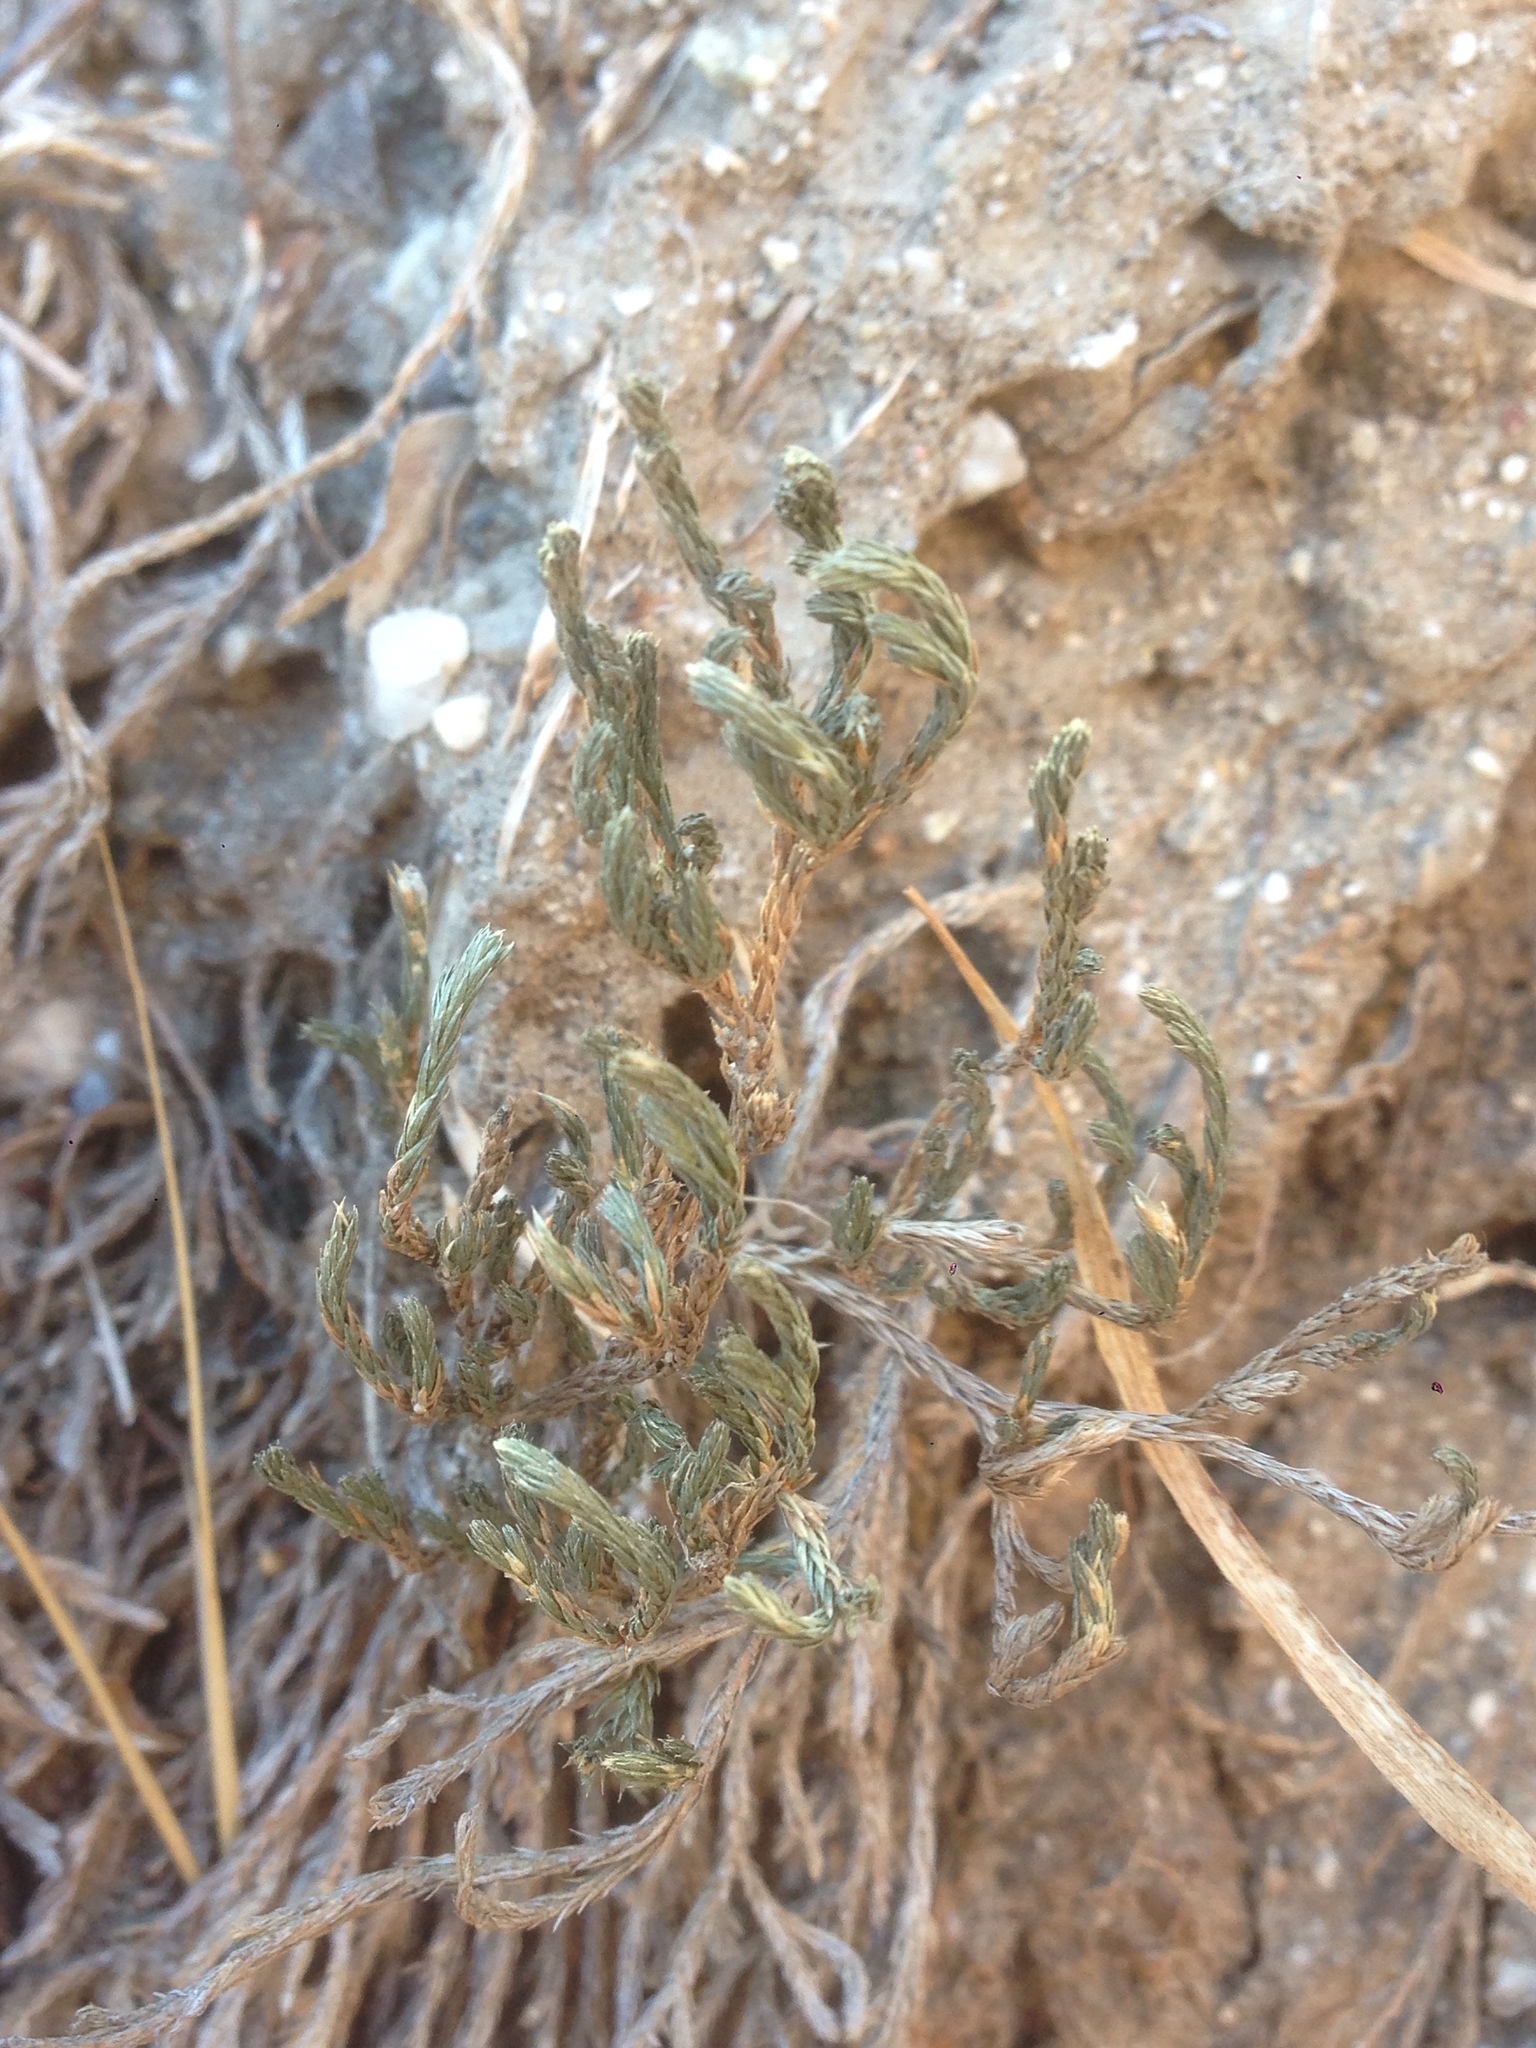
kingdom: Plantae
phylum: Tracheophyta
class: Lycopodiopsida
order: Selaginellales
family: Selaginellaceae
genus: Selaginella
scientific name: Selaginella bigelovii
